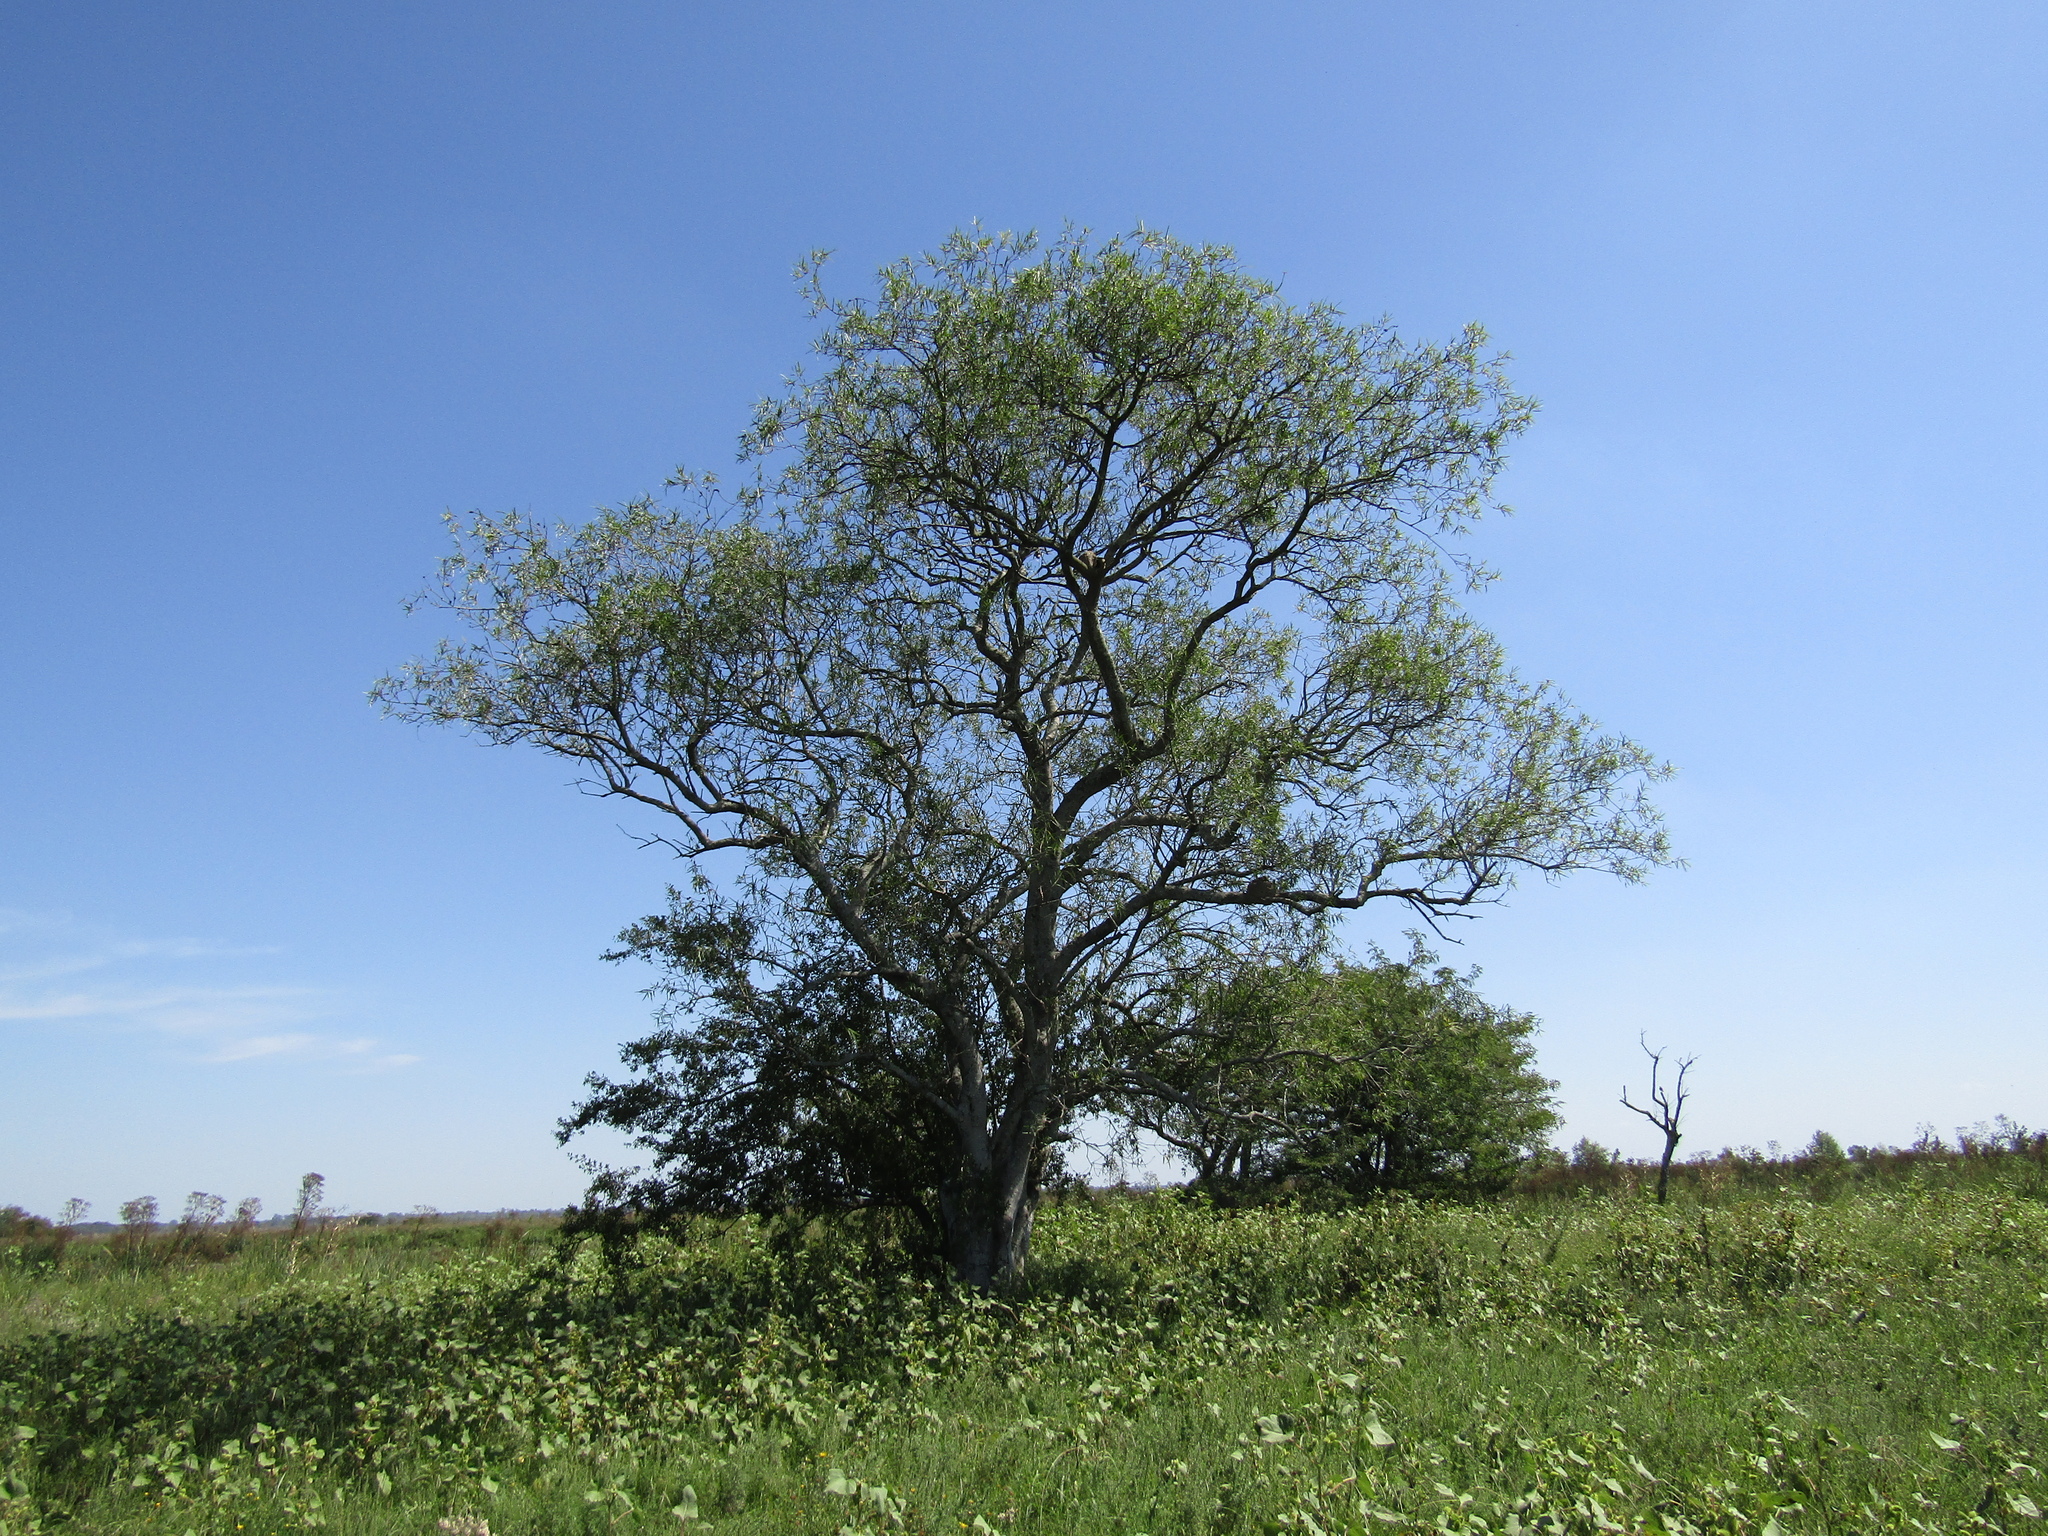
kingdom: Plantae
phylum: Tracheophyta
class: Magnoliopsida
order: Rosales
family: Cannabaceae
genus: Celtis
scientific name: Celtis tala
